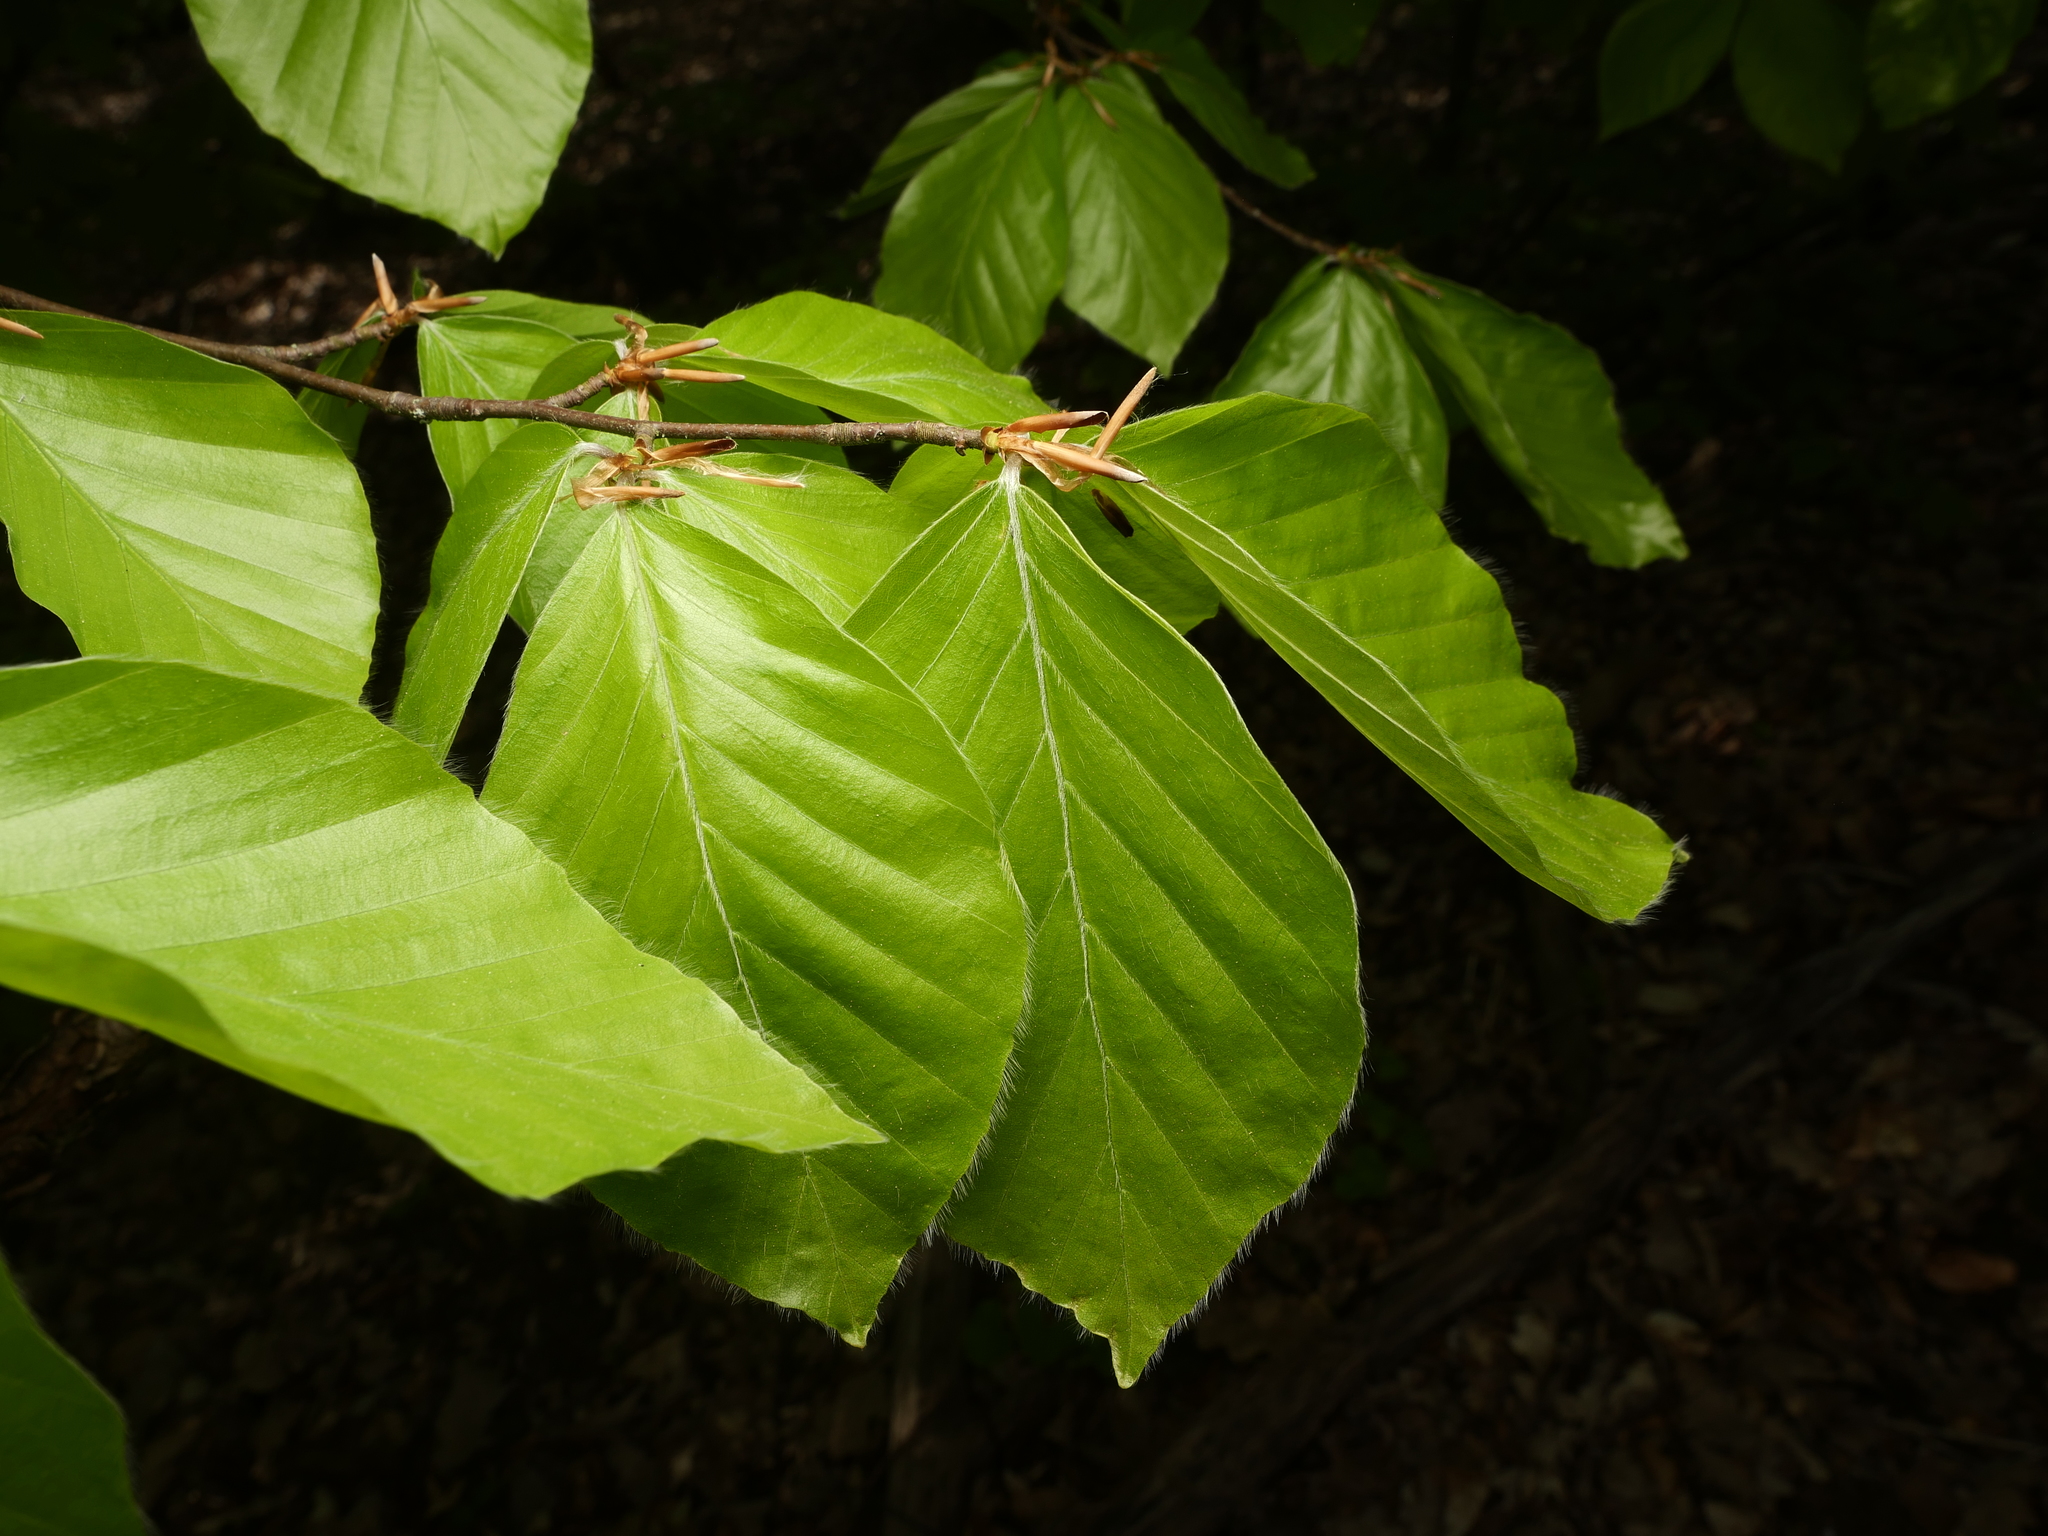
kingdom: Plantae
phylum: Tracheophyta
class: Magnoliopsida
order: Fagales
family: Fagaceae
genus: Fagus
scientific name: Fagus sylvatica
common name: Beech
